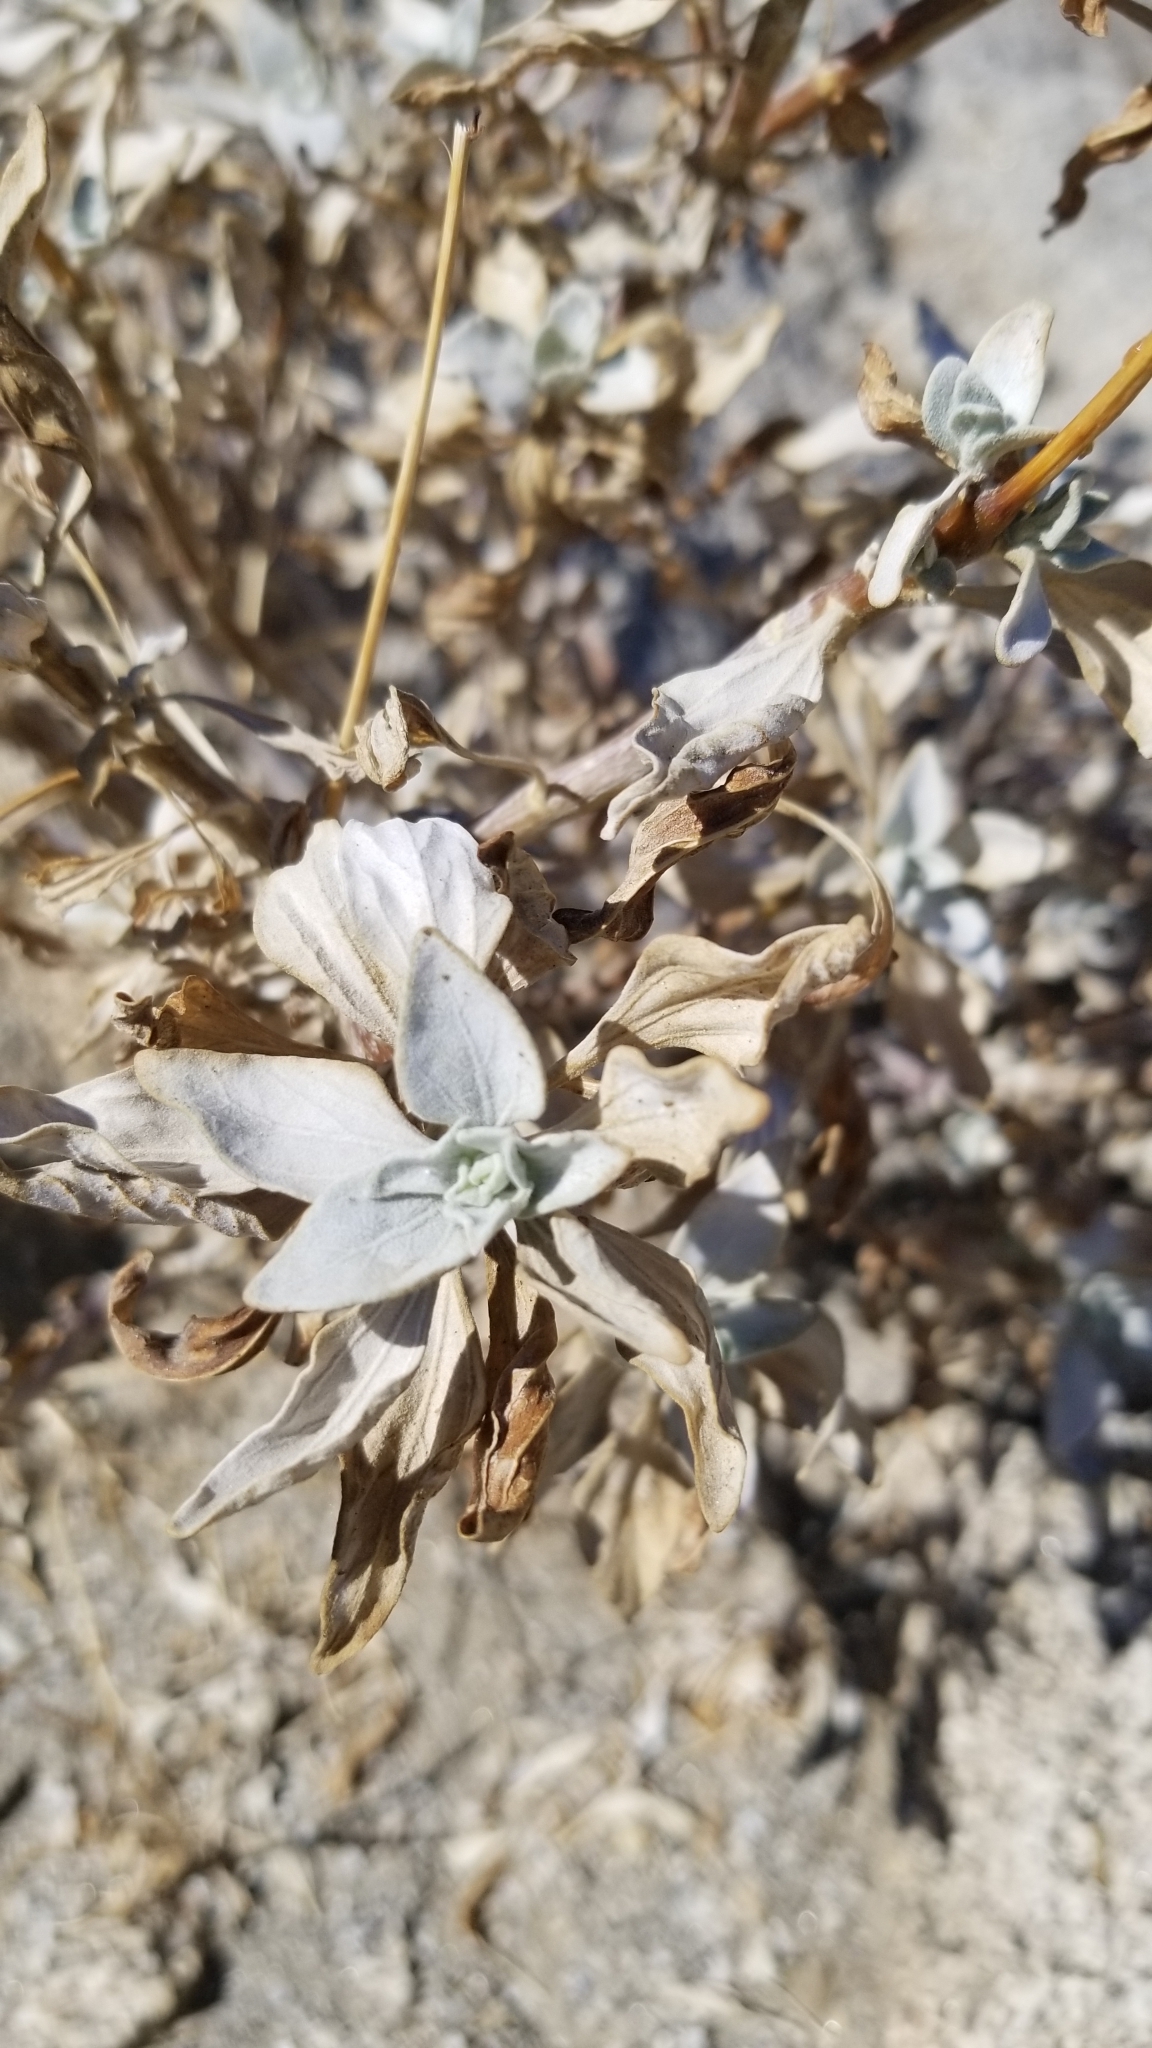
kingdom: Plantae
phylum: Tracheophyta
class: Magnoliopsida
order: Asterales
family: Asteraceae
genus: Encelia
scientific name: Encelia farinosa
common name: Brittlebush
